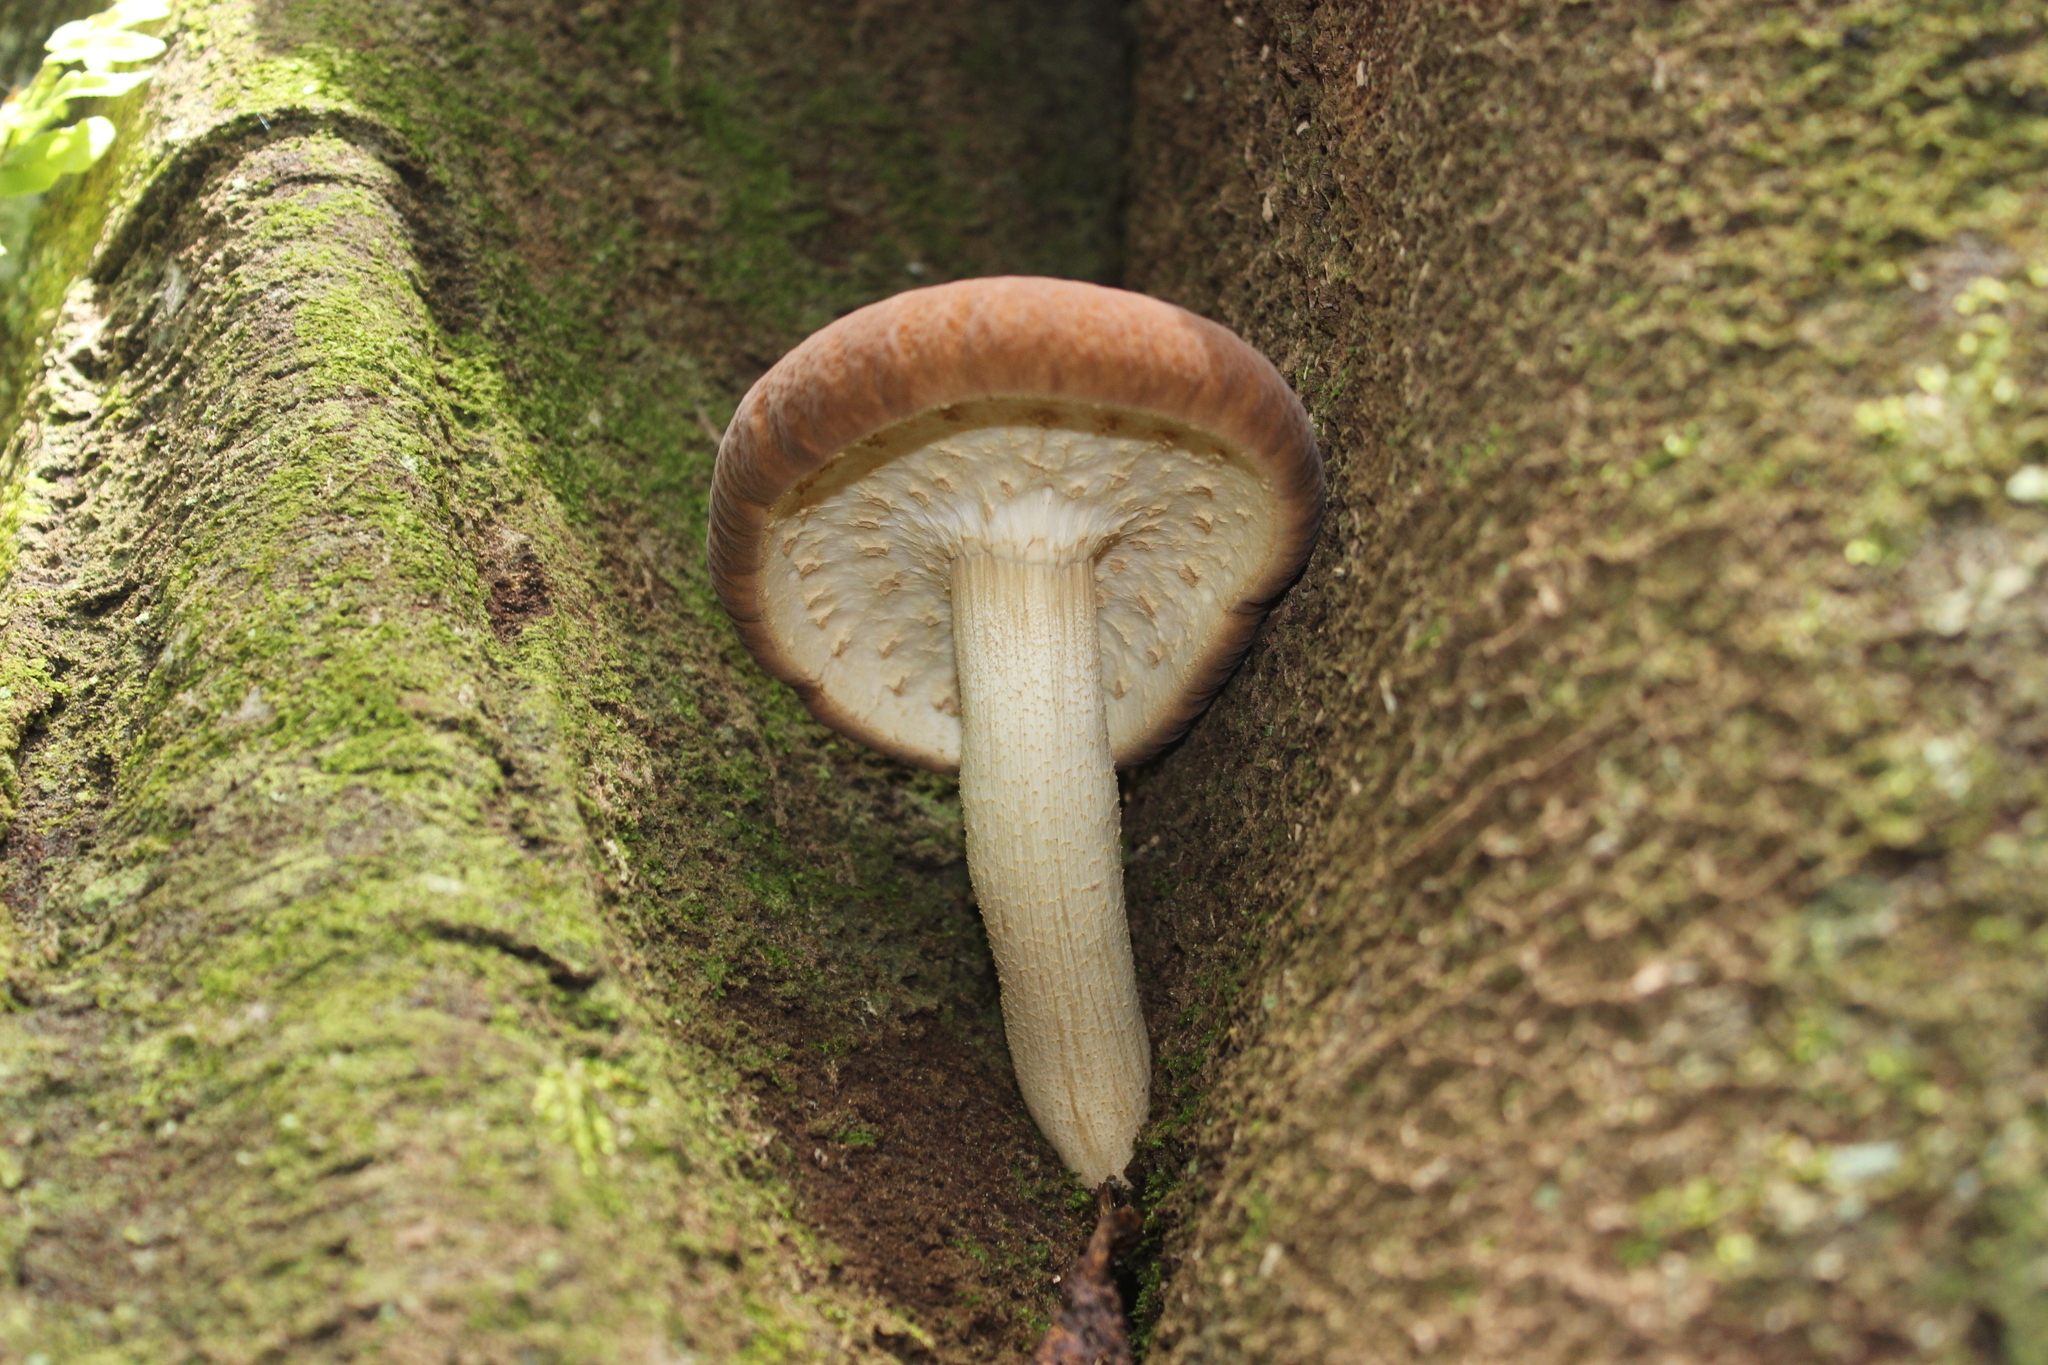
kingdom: Fungi
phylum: Basidiomycota
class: Agaricomycetes
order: Agaricales
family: Tubariaceae
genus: Cyclocybe
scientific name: Cyclocybe parasitica
